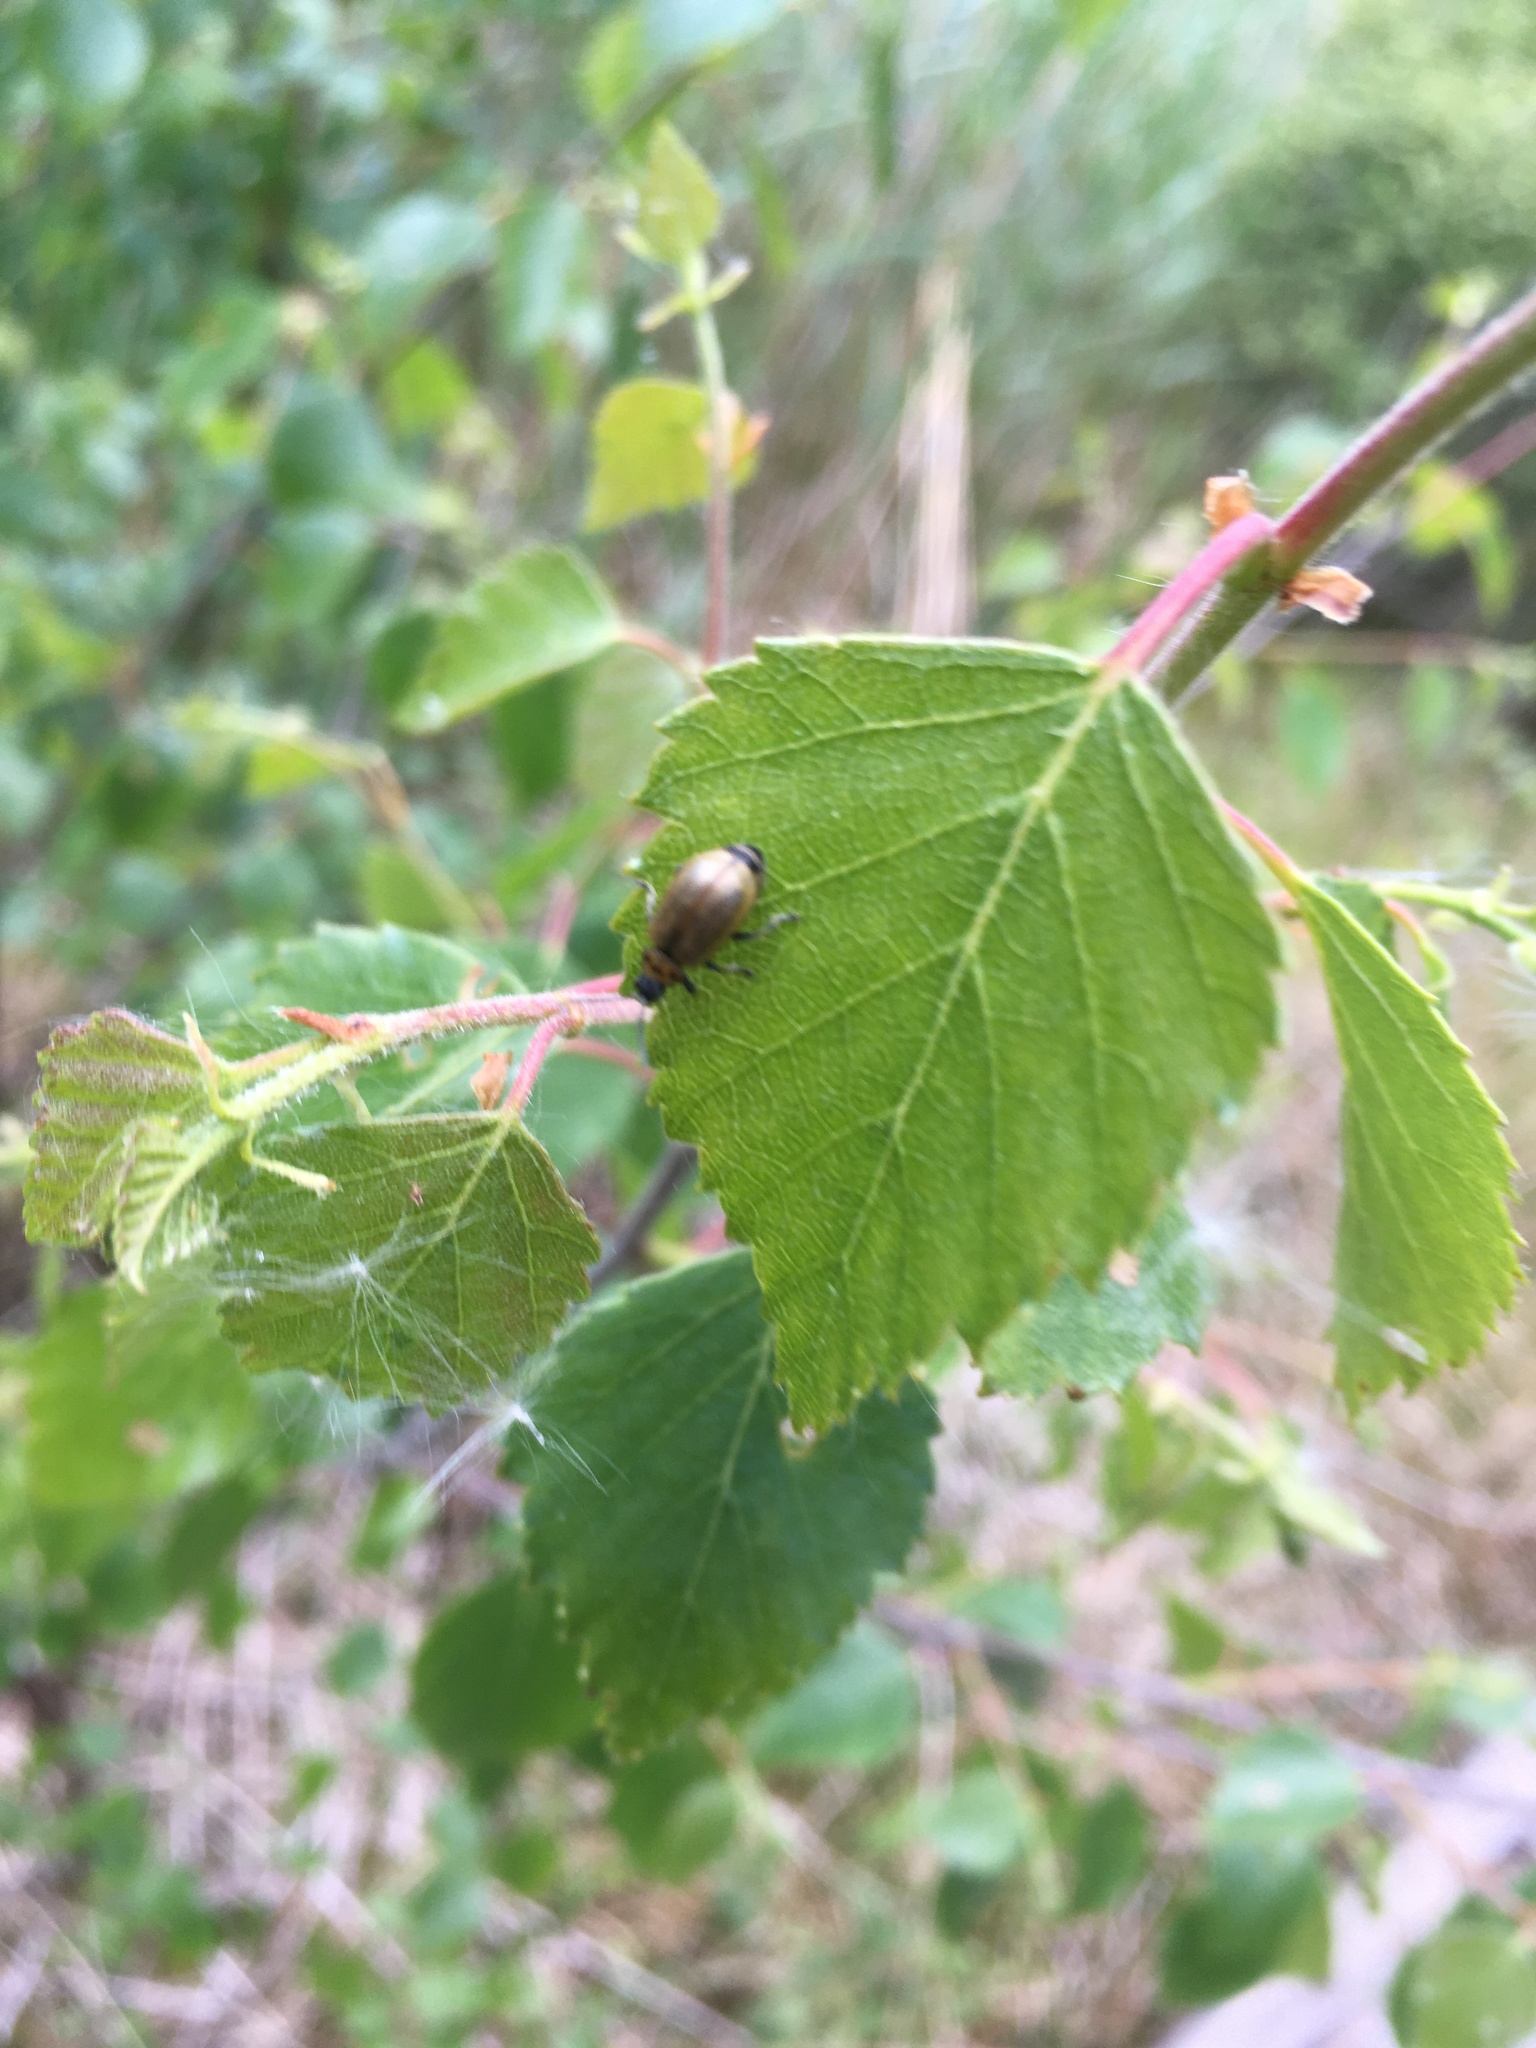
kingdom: Animalia
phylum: Arthropoda
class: Insecta
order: Coleoptera
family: Chrysomelidae
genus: Lochmaea
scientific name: Lochmaea caprea
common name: Willow leaf beetle
